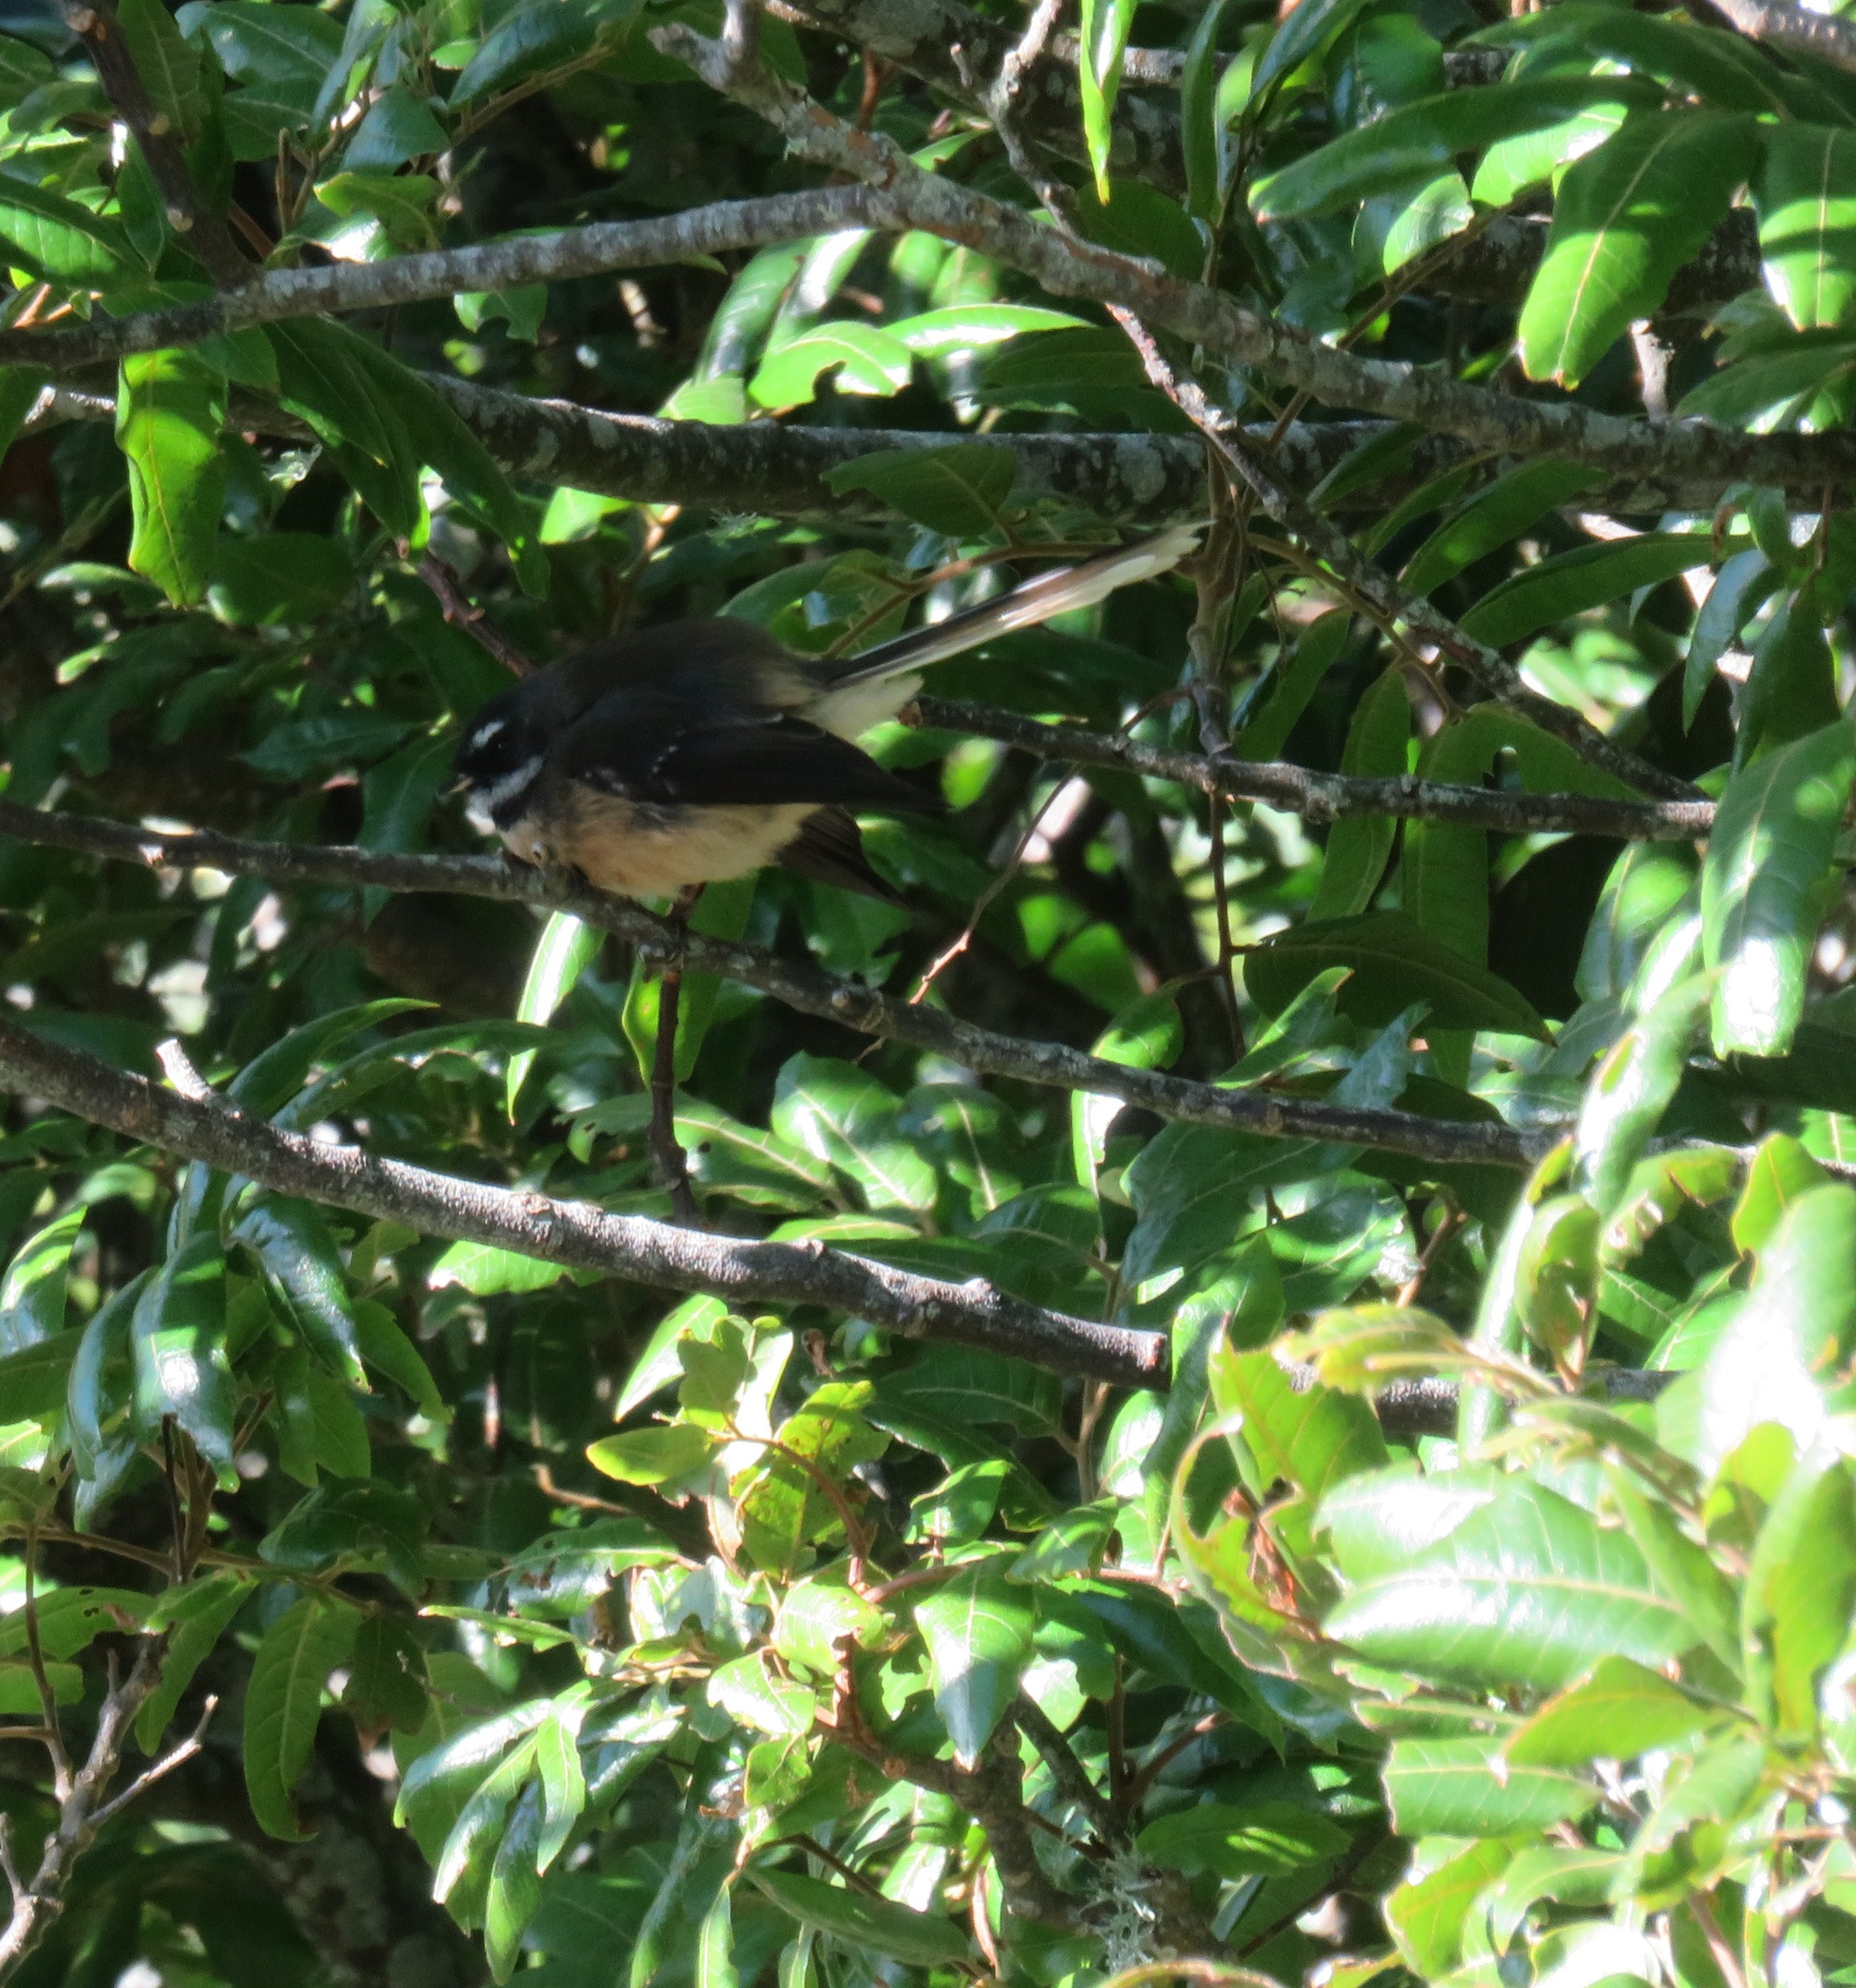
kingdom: Animalia
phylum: Chordata
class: Aves
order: Passeriformes
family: Rhipiduridae
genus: Rhipidura
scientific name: Rhipidura fuliginosa
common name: New zealand fantail
